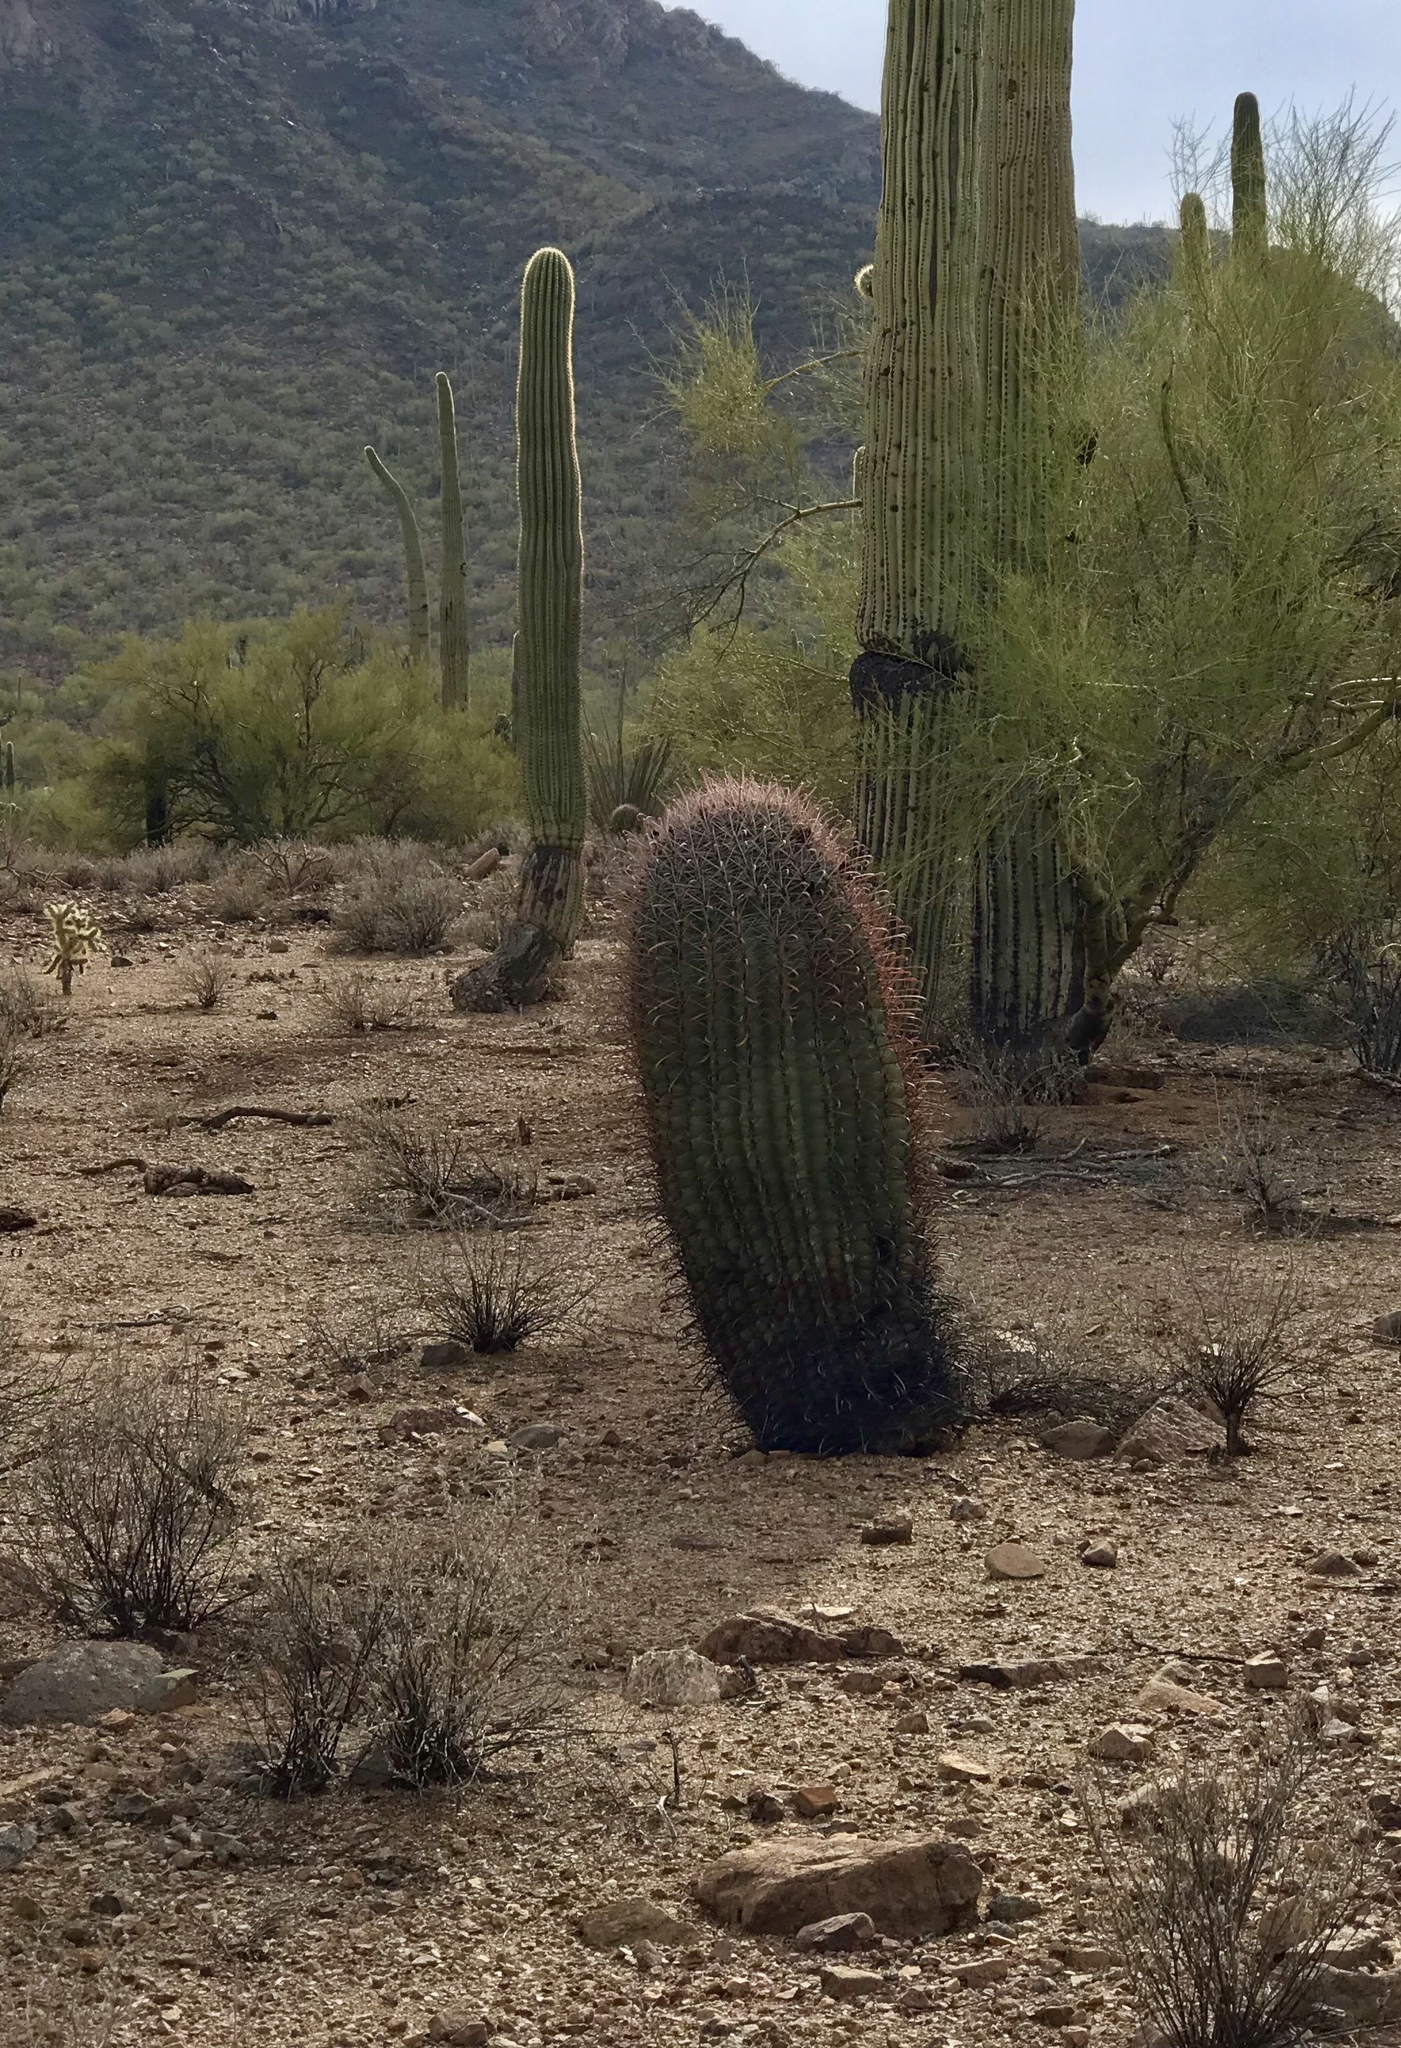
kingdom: Plantae
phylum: Tracheophyta
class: Magnoliopsida
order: Caryophyllales
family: Cactaceae
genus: Ferocactus
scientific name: Ferocactus wislizeni
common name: Candy barrel cactus
